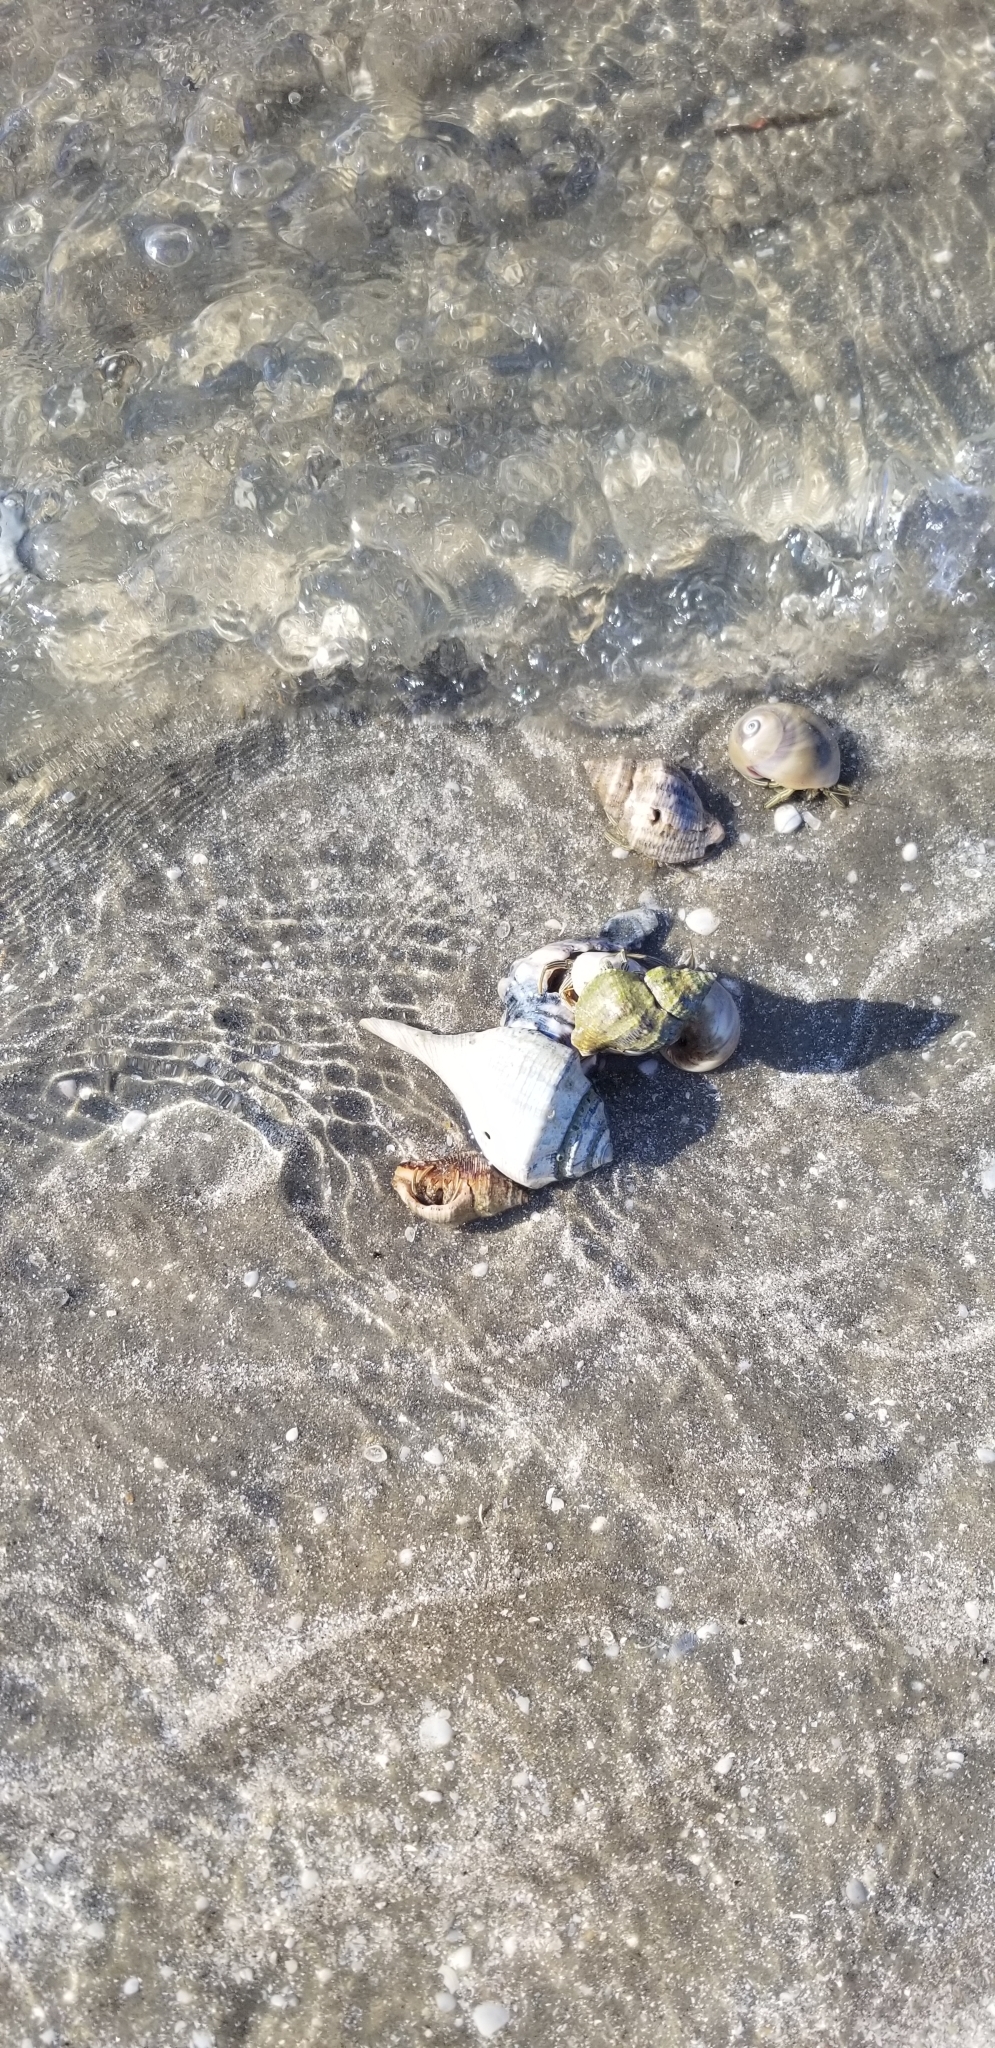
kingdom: Animalia
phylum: Arthropoda
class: Malacostraca
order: Decapoda
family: Diogenidae
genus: Clibanarius
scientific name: Clibanarius vittatus
